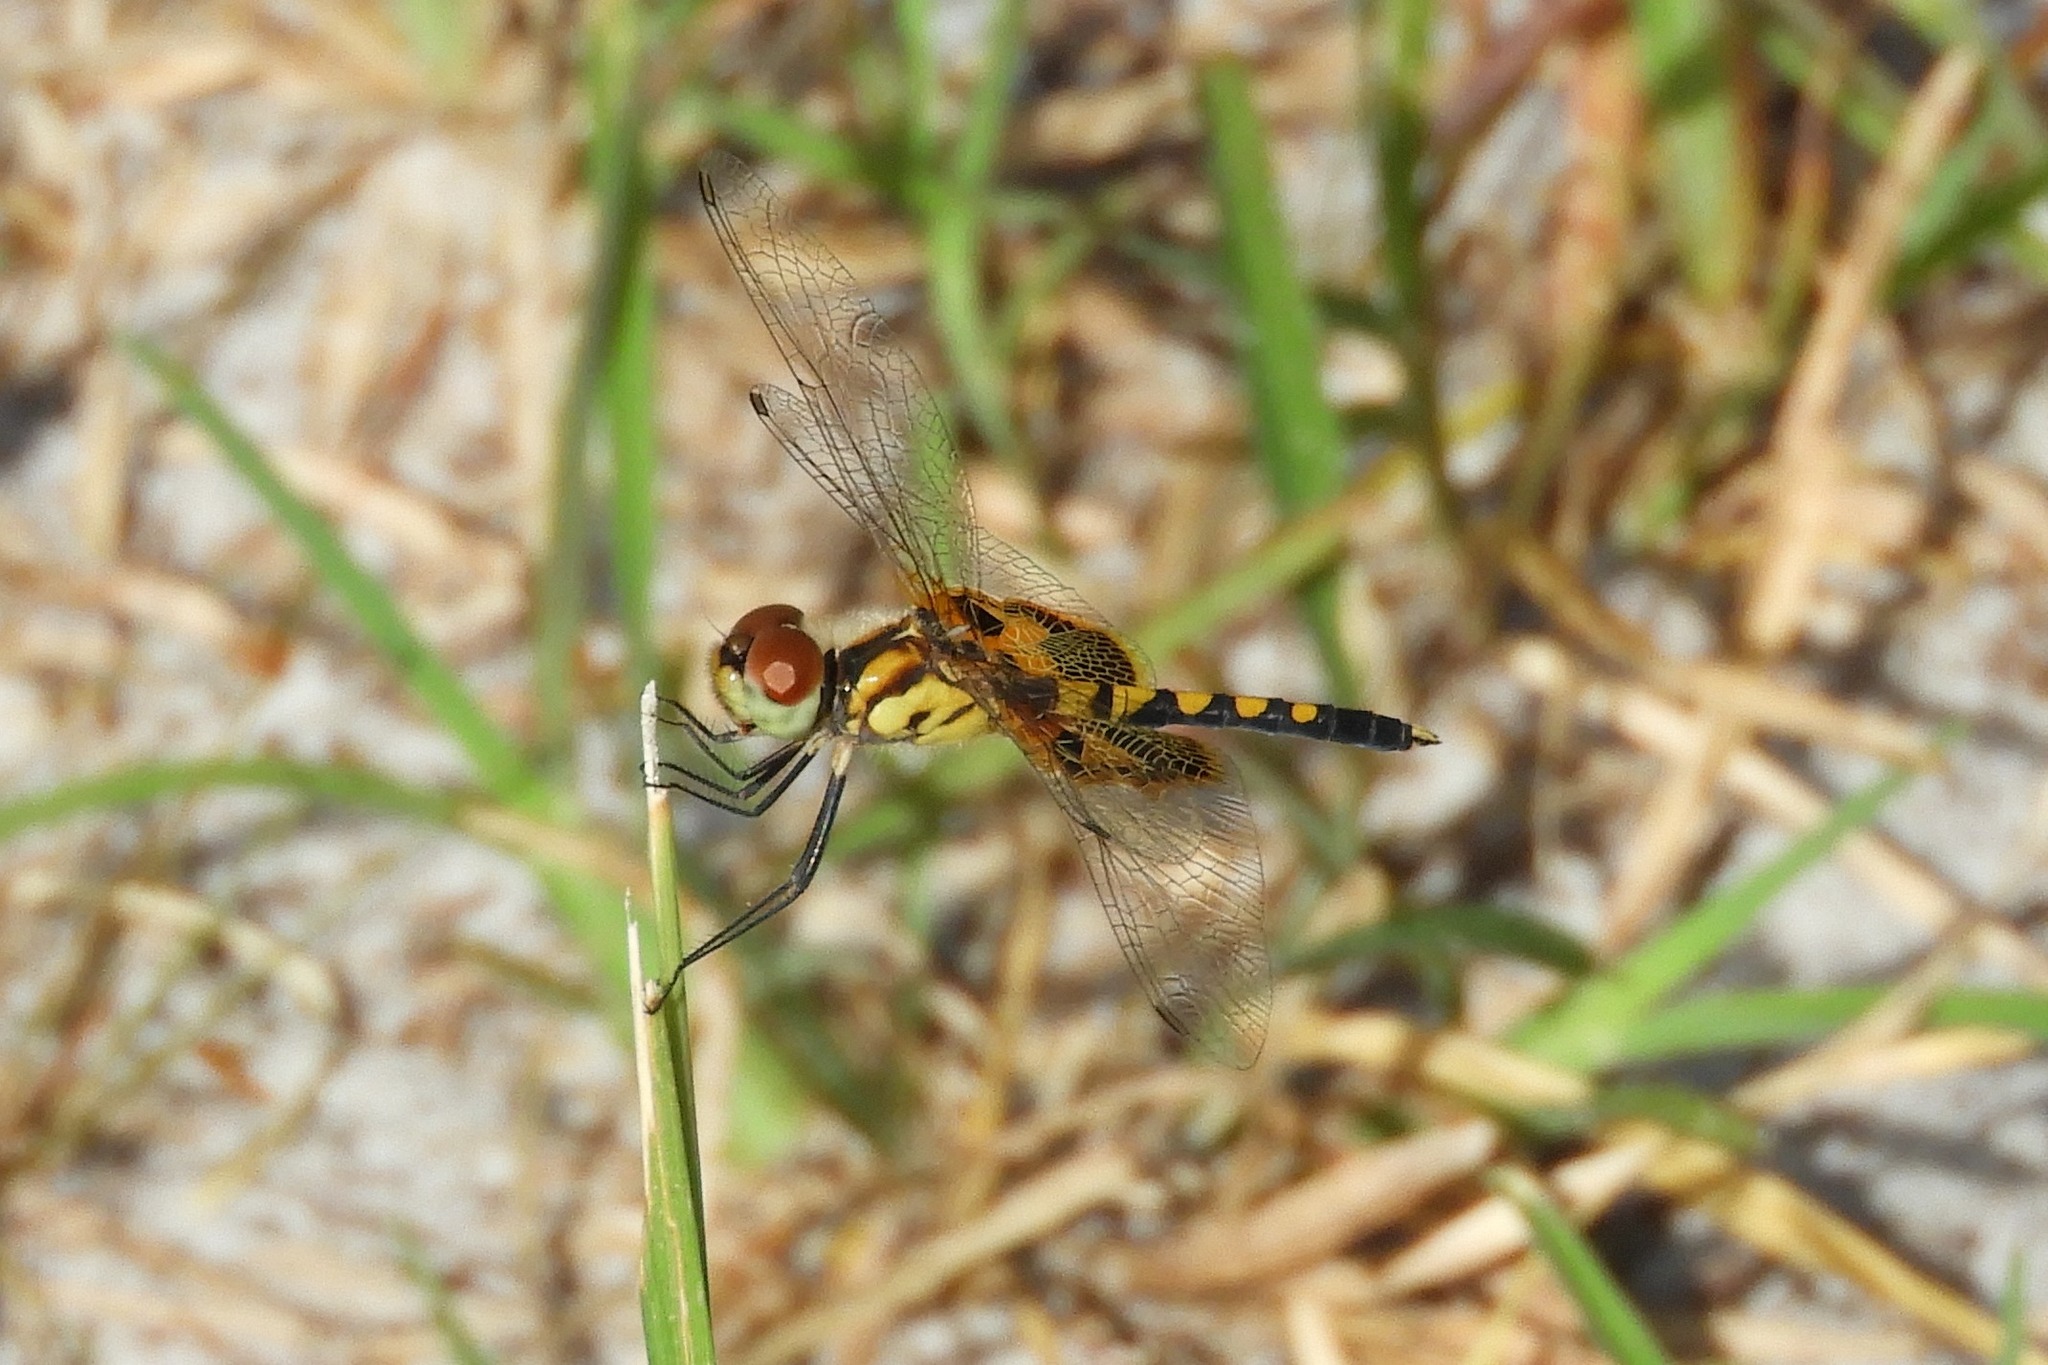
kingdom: Animalia
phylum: Arthropoda
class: Insecta
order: Odonata
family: Libellulidae
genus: Celithemis
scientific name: Celithemis amanda
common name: Amanda's pennant
